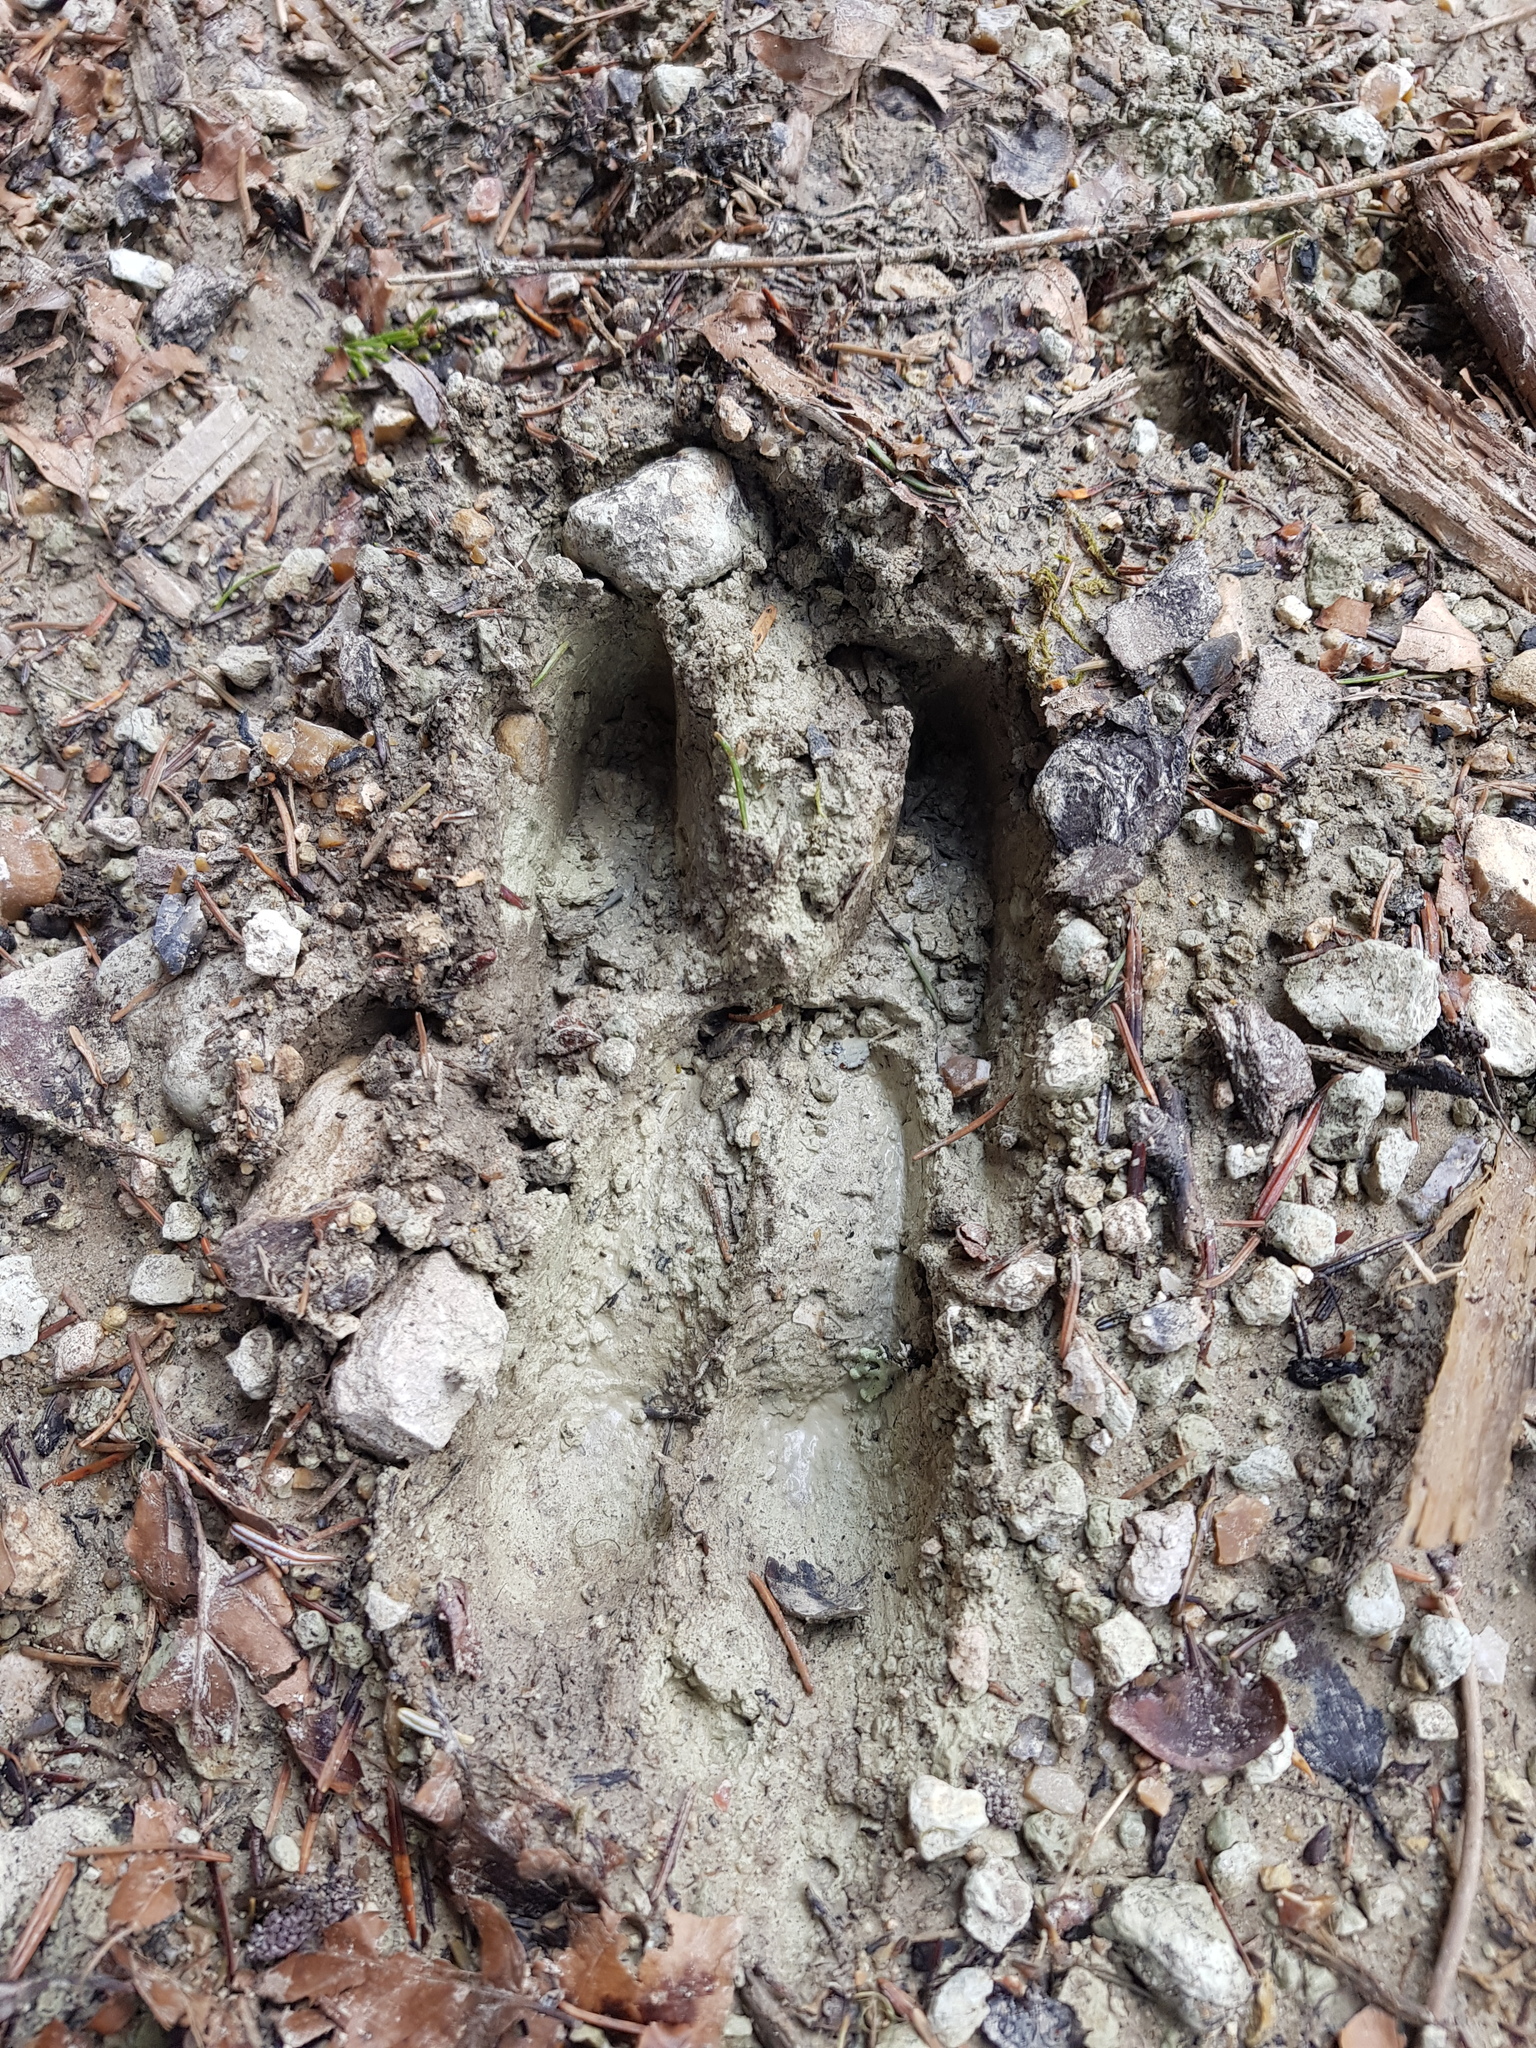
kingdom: Animalia
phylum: Chordata
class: Mammalia
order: Artiodactyla
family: Cervidae
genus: Capreolus
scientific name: Capreolus capreolus
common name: Western roe deer
